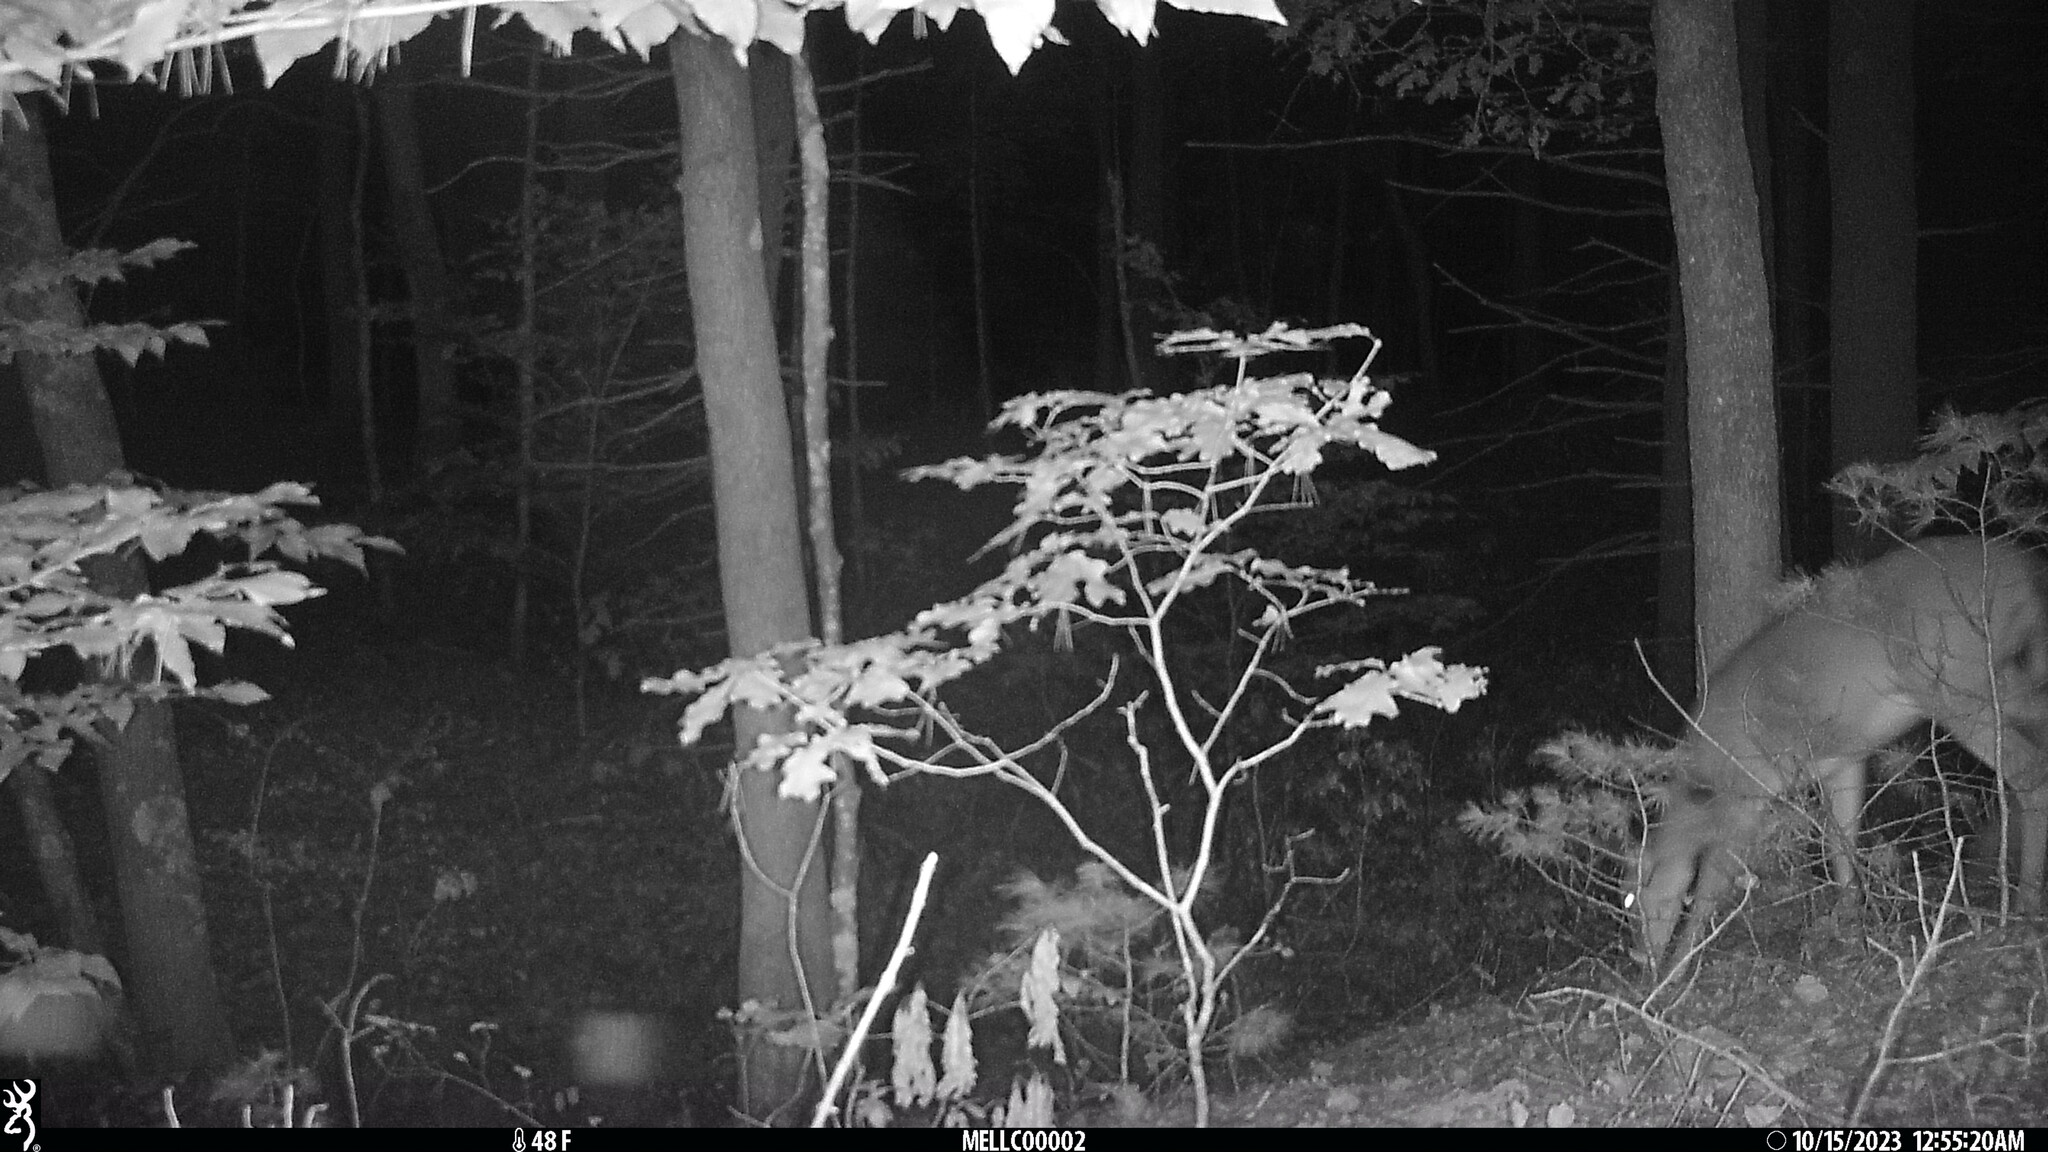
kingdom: Animalia
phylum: Chordata
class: Mammalia
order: Artiodactyla
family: Cervidae
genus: Odocoileus
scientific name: Odocoileus virginianus
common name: White-tailed deer
